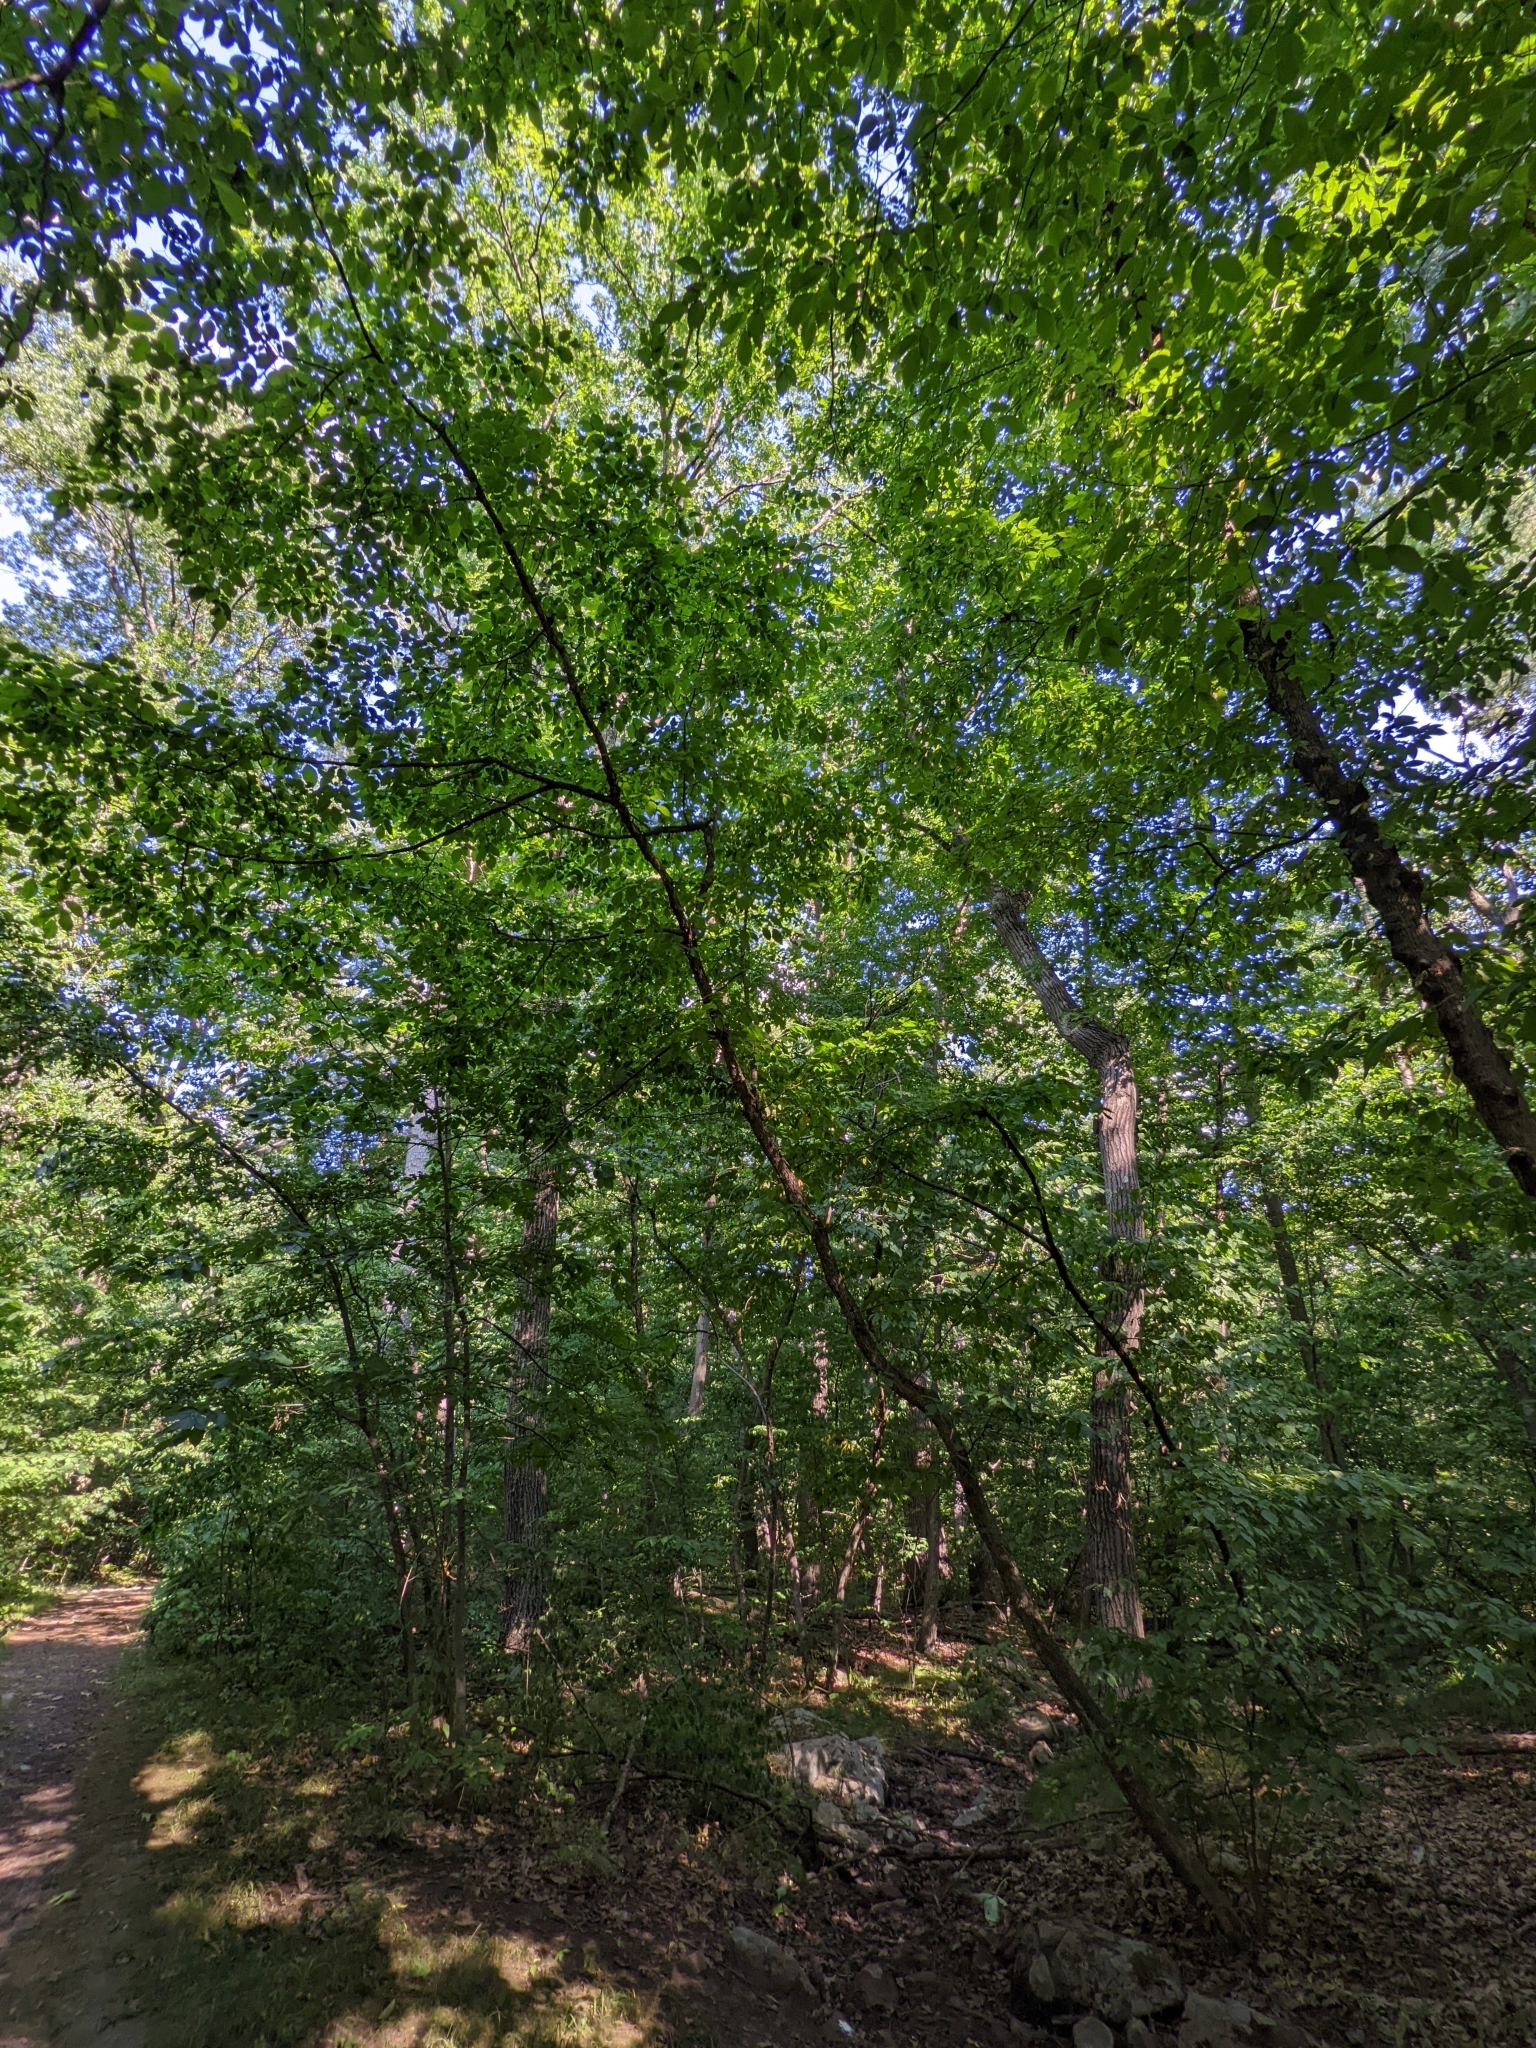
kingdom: Plantae
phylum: Tracheophyta
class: Magnoliopsida
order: Fagales
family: Betulaceae
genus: Ostrya
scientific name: Ostrya virginiana
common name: Ironwood
